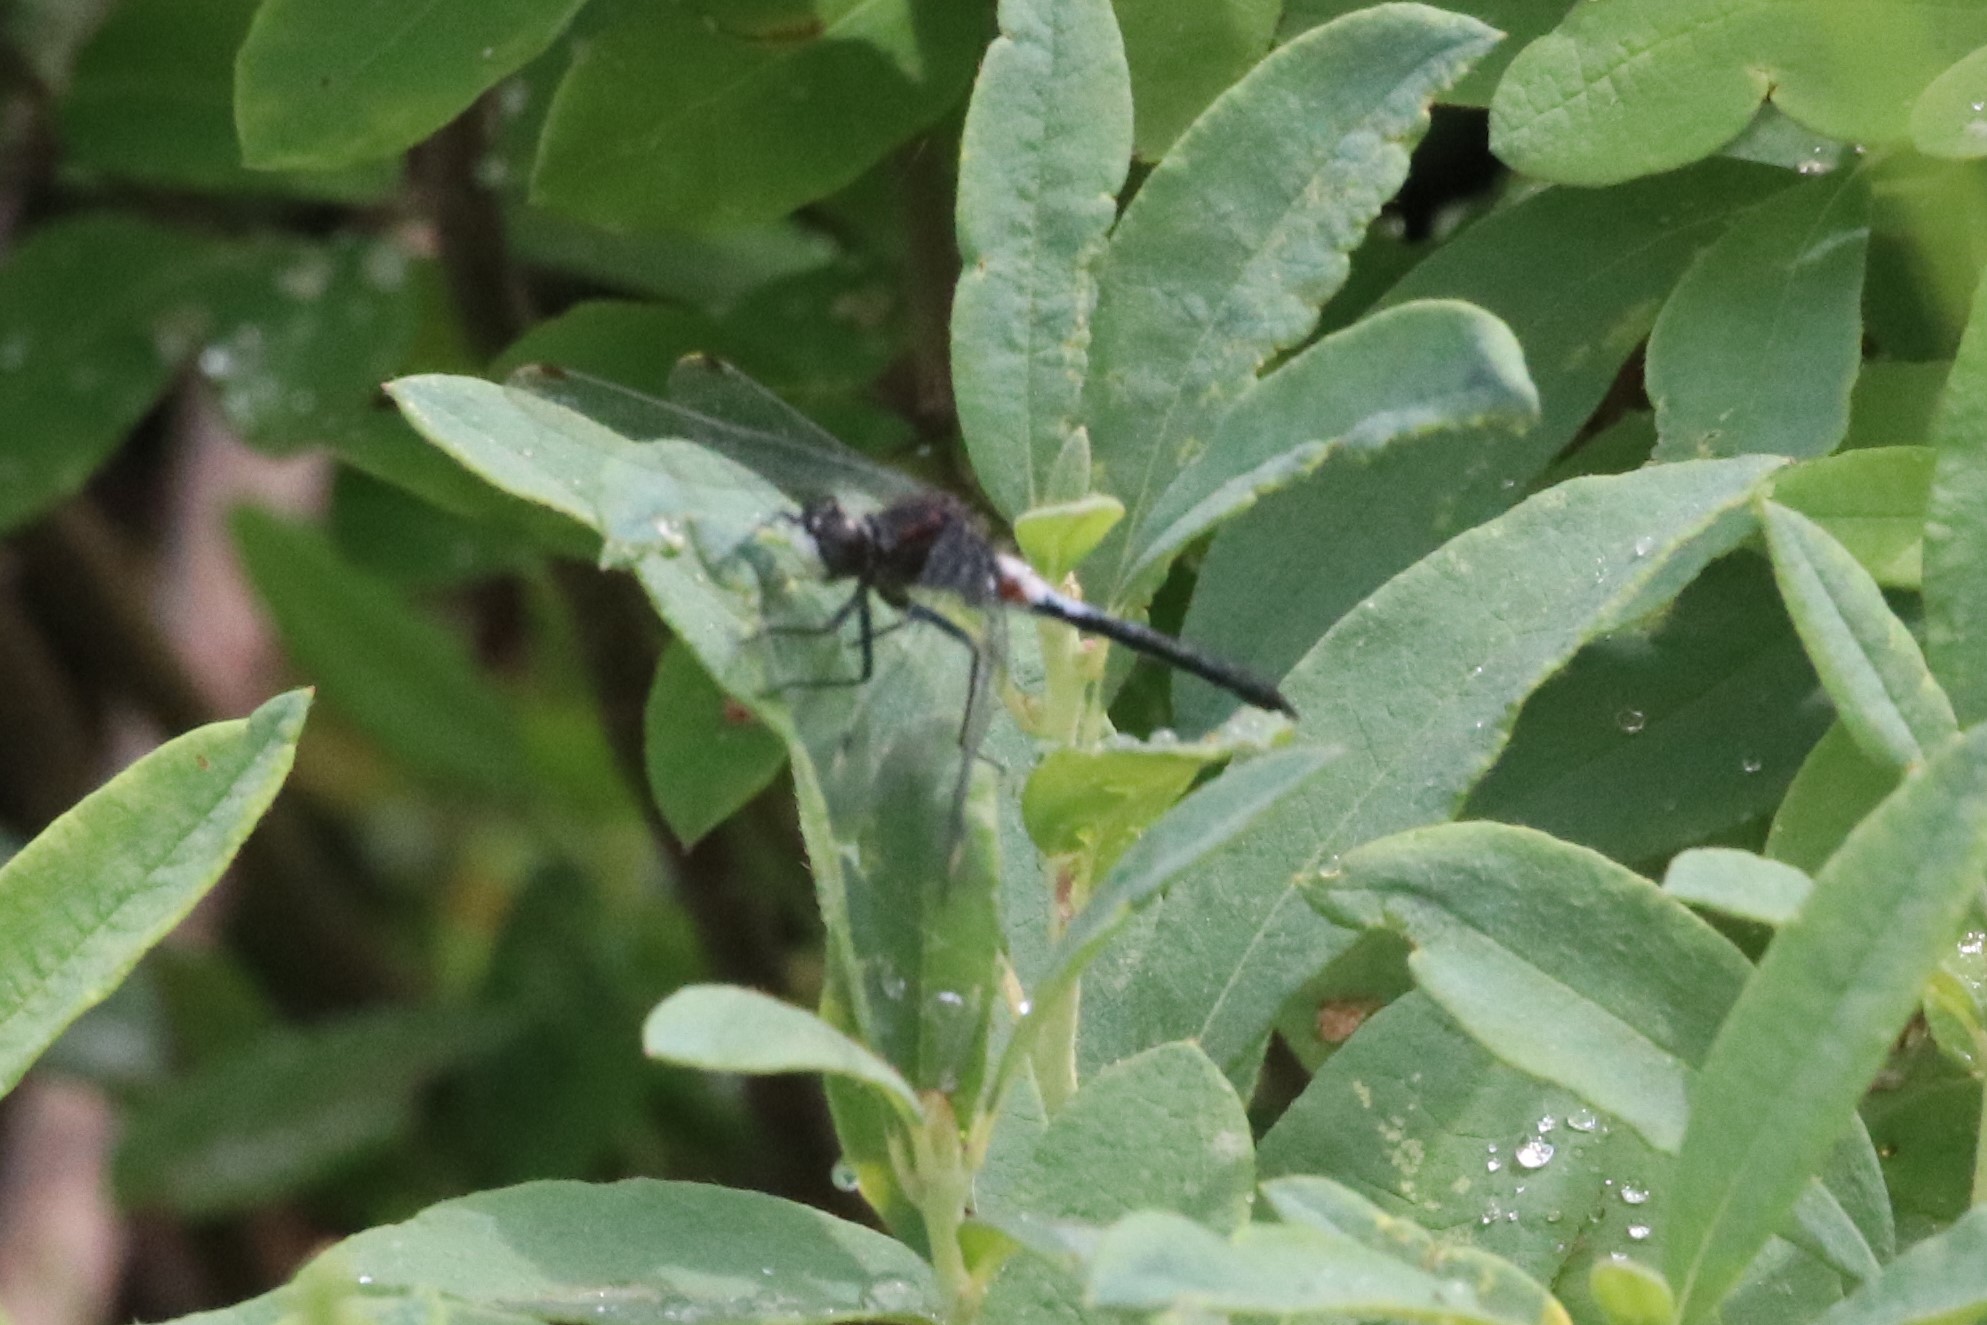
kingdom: Animalia
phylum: Arthropoda
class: Insecta
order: Odonata
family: Libellulidae
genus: Leucorrhinia
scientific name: Leucorrhinia proxima
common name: Belted whiteface
